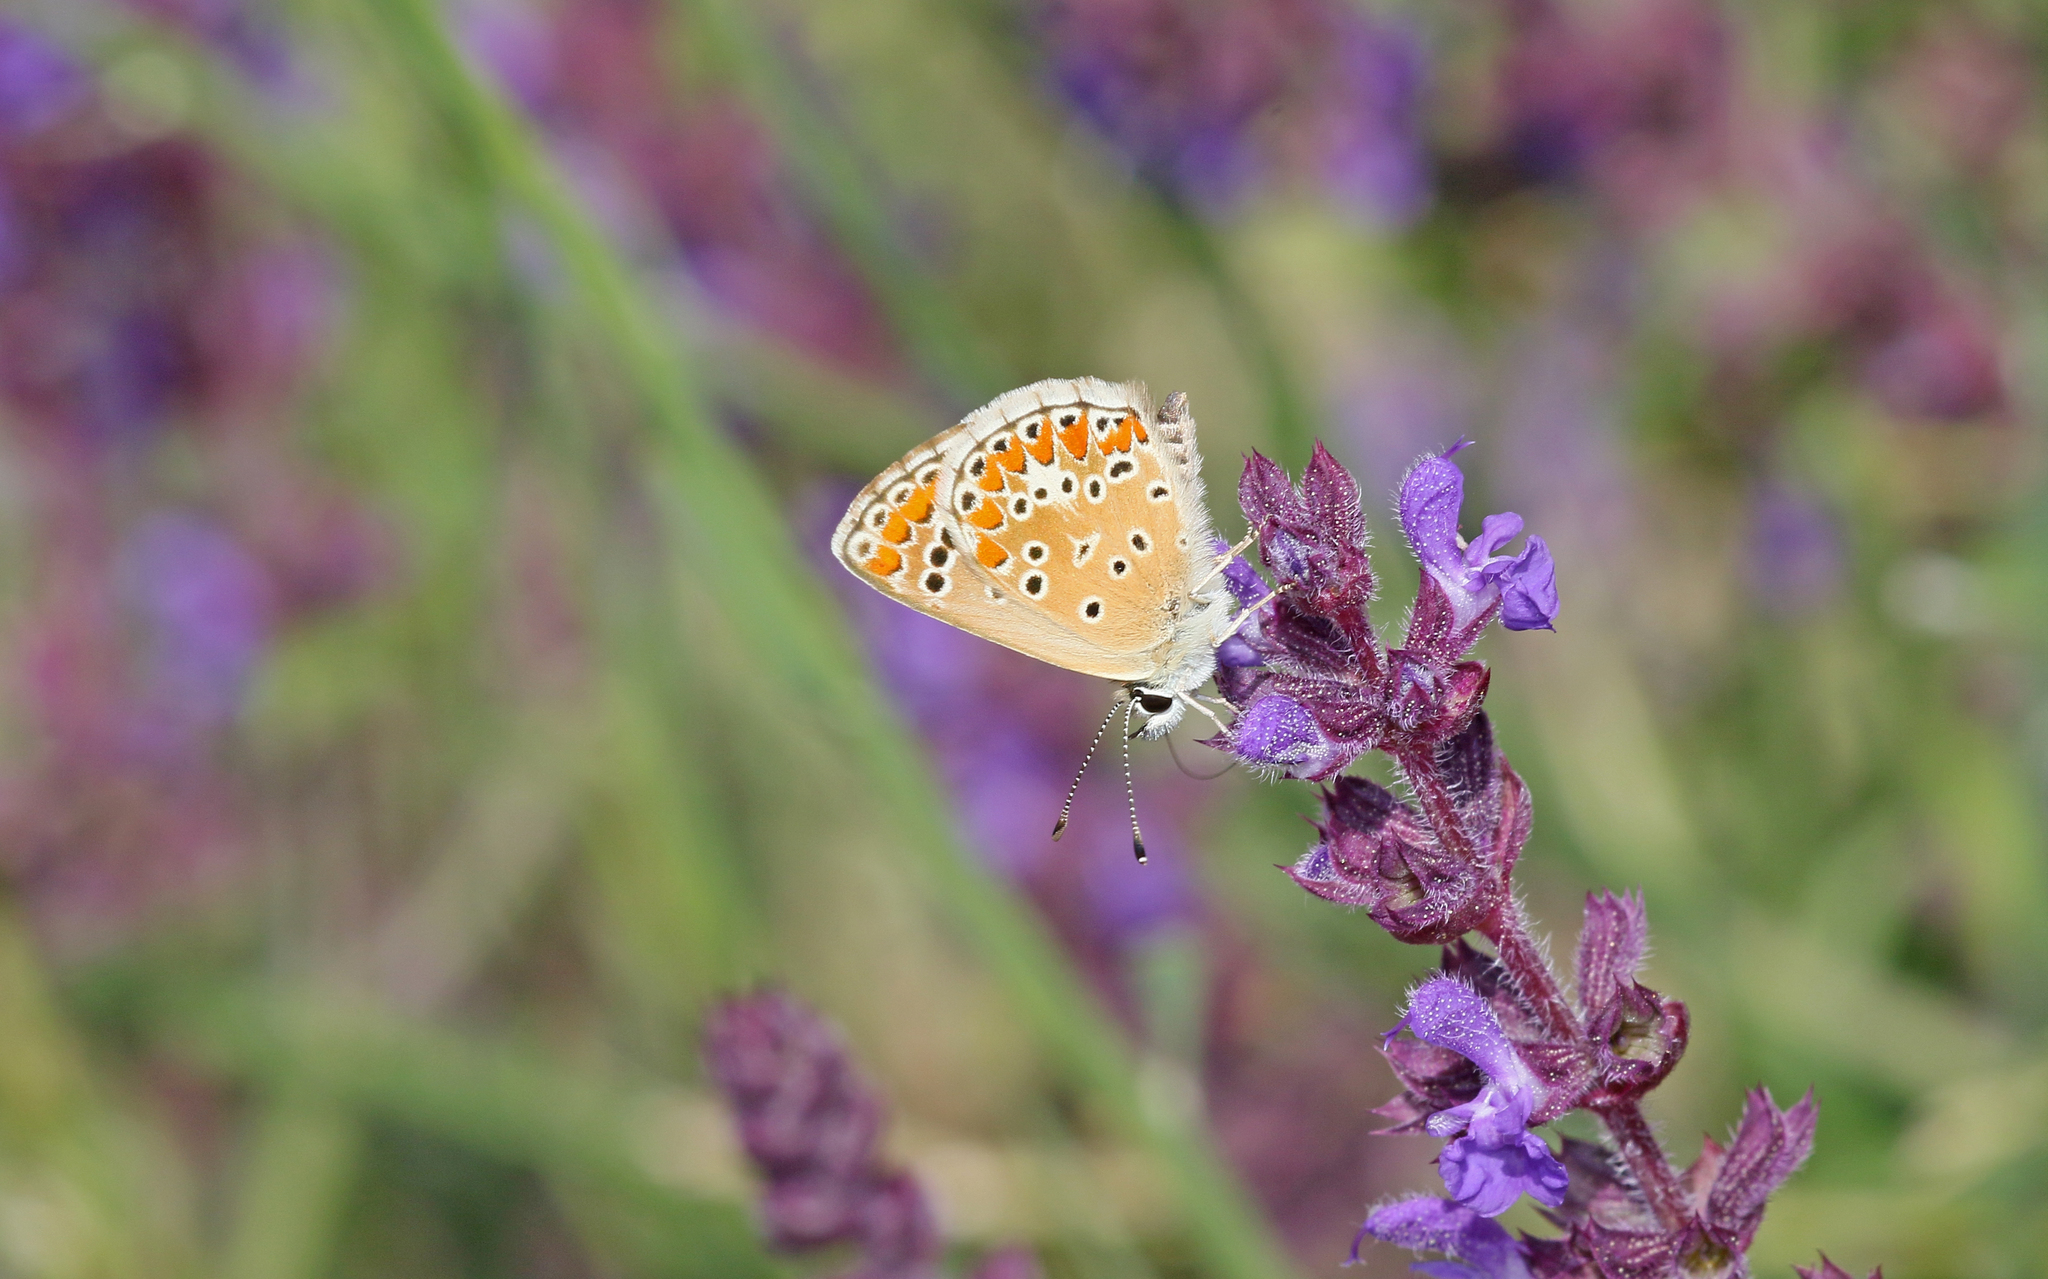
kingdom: Animalia
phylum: Arthropoda
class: Insecta
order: Lepidoptera
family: Lycaenidae
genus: Aricia
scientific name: Aricia agestis
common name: Brown argus
